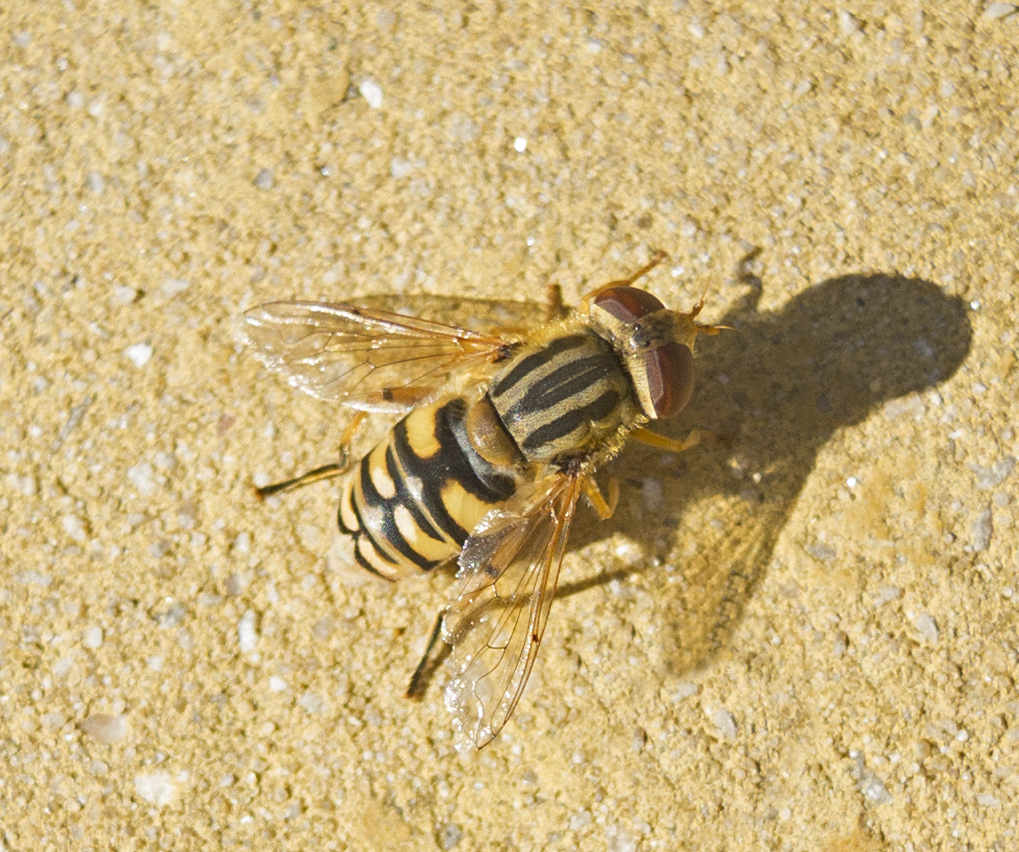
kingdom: Animalia
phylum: Arthropoda
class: Insecta
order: Diptera
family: Syrphidae
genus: Helophilus
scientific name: Helophilus pendulus
